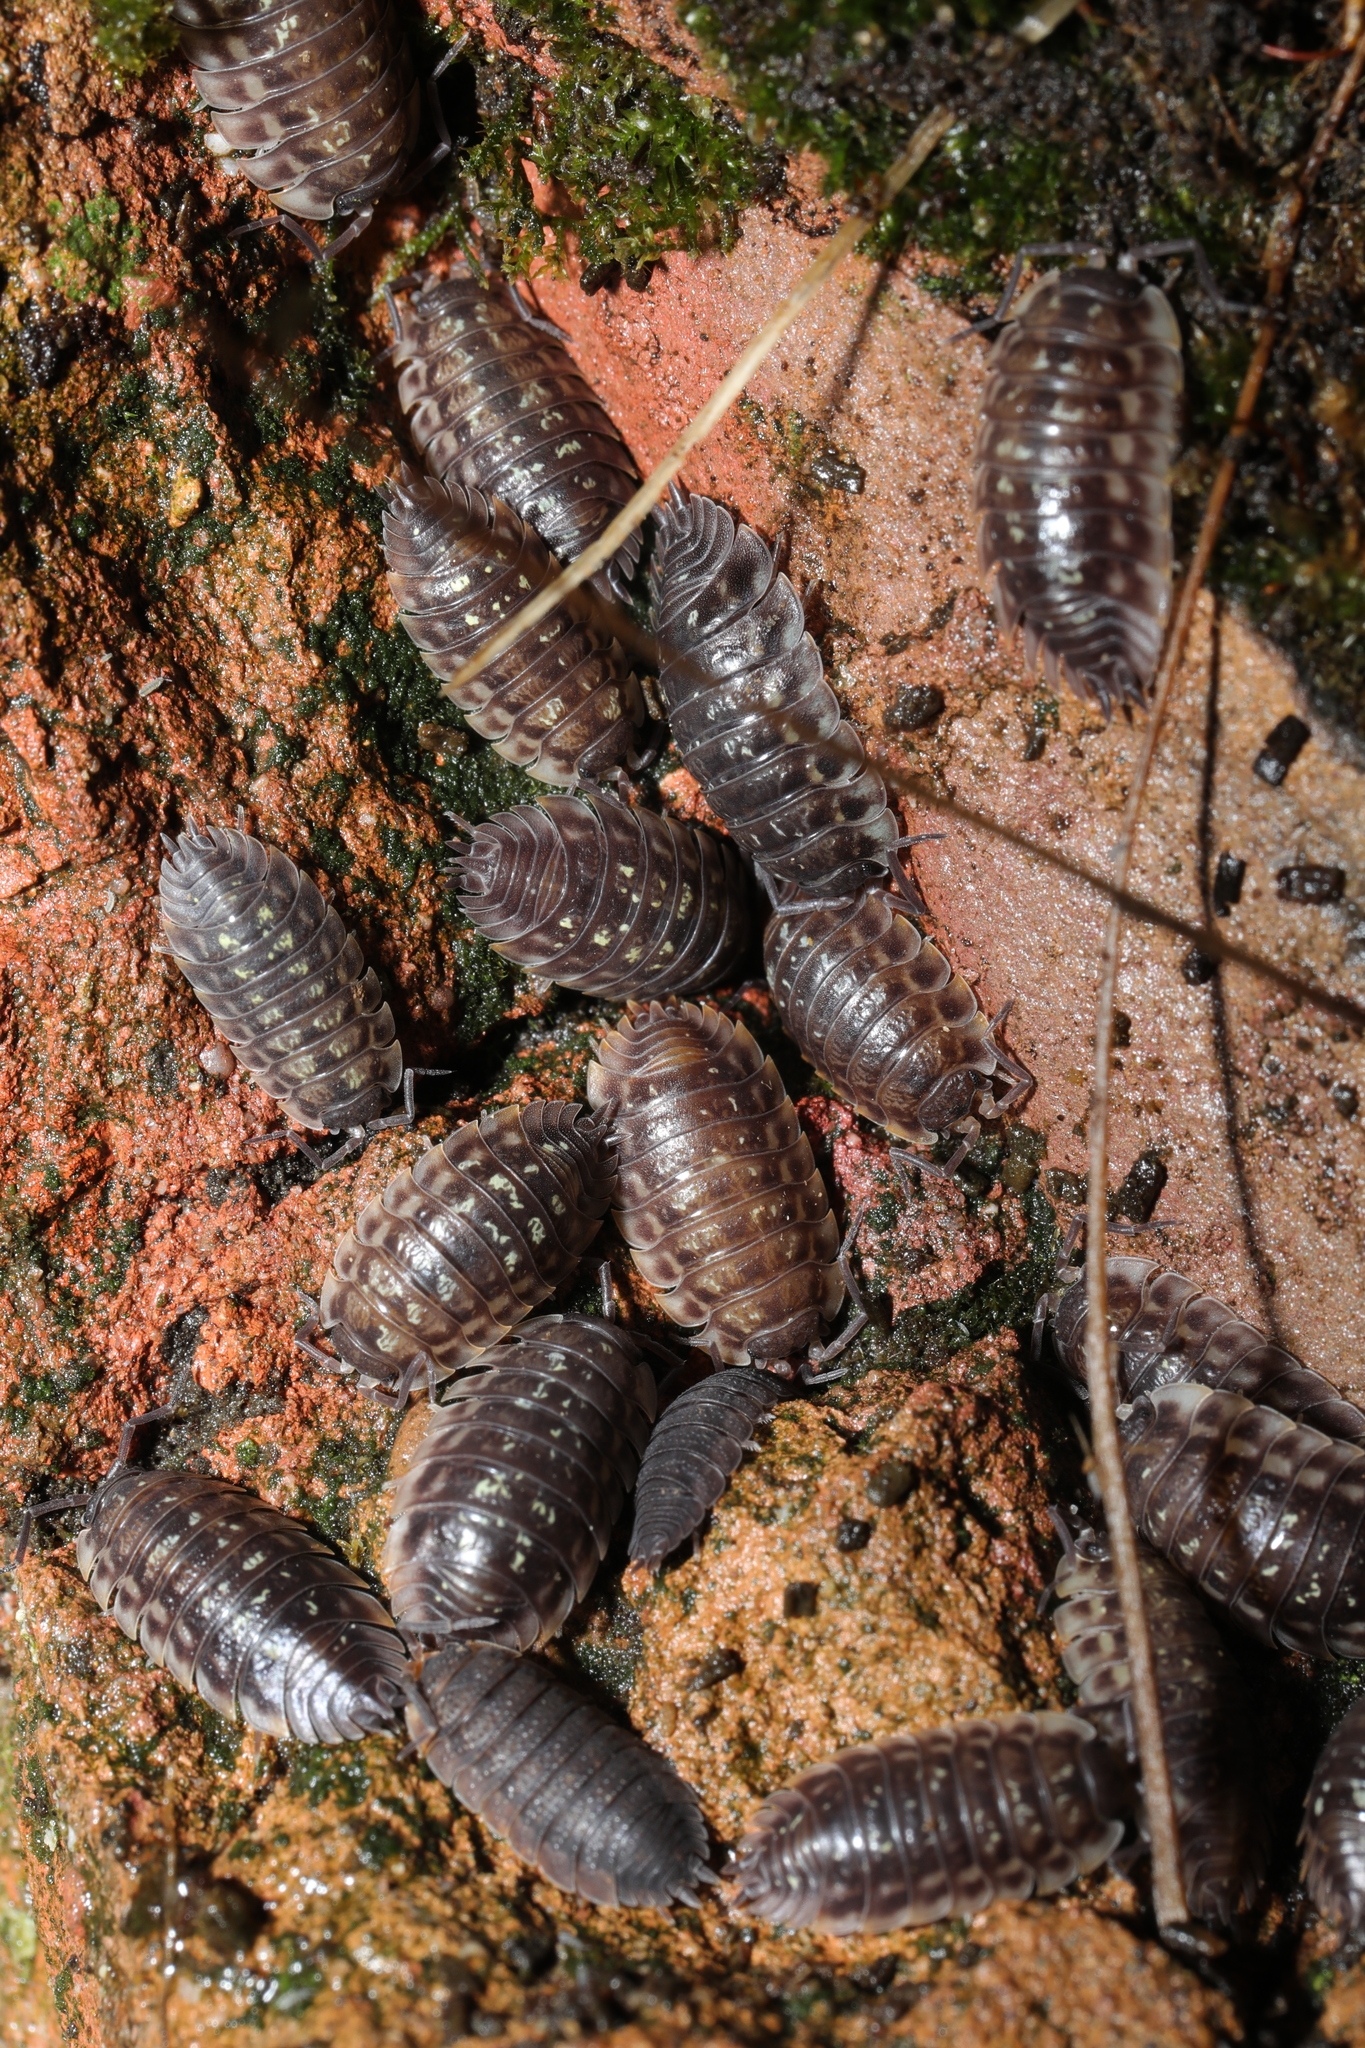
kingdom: Animalia
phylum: Arthropoda
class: Malacostraca
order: Isopoda
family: Oniscidae
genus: Oniscus
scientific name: Oniscus asellus
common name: Common shiny woodlouse
